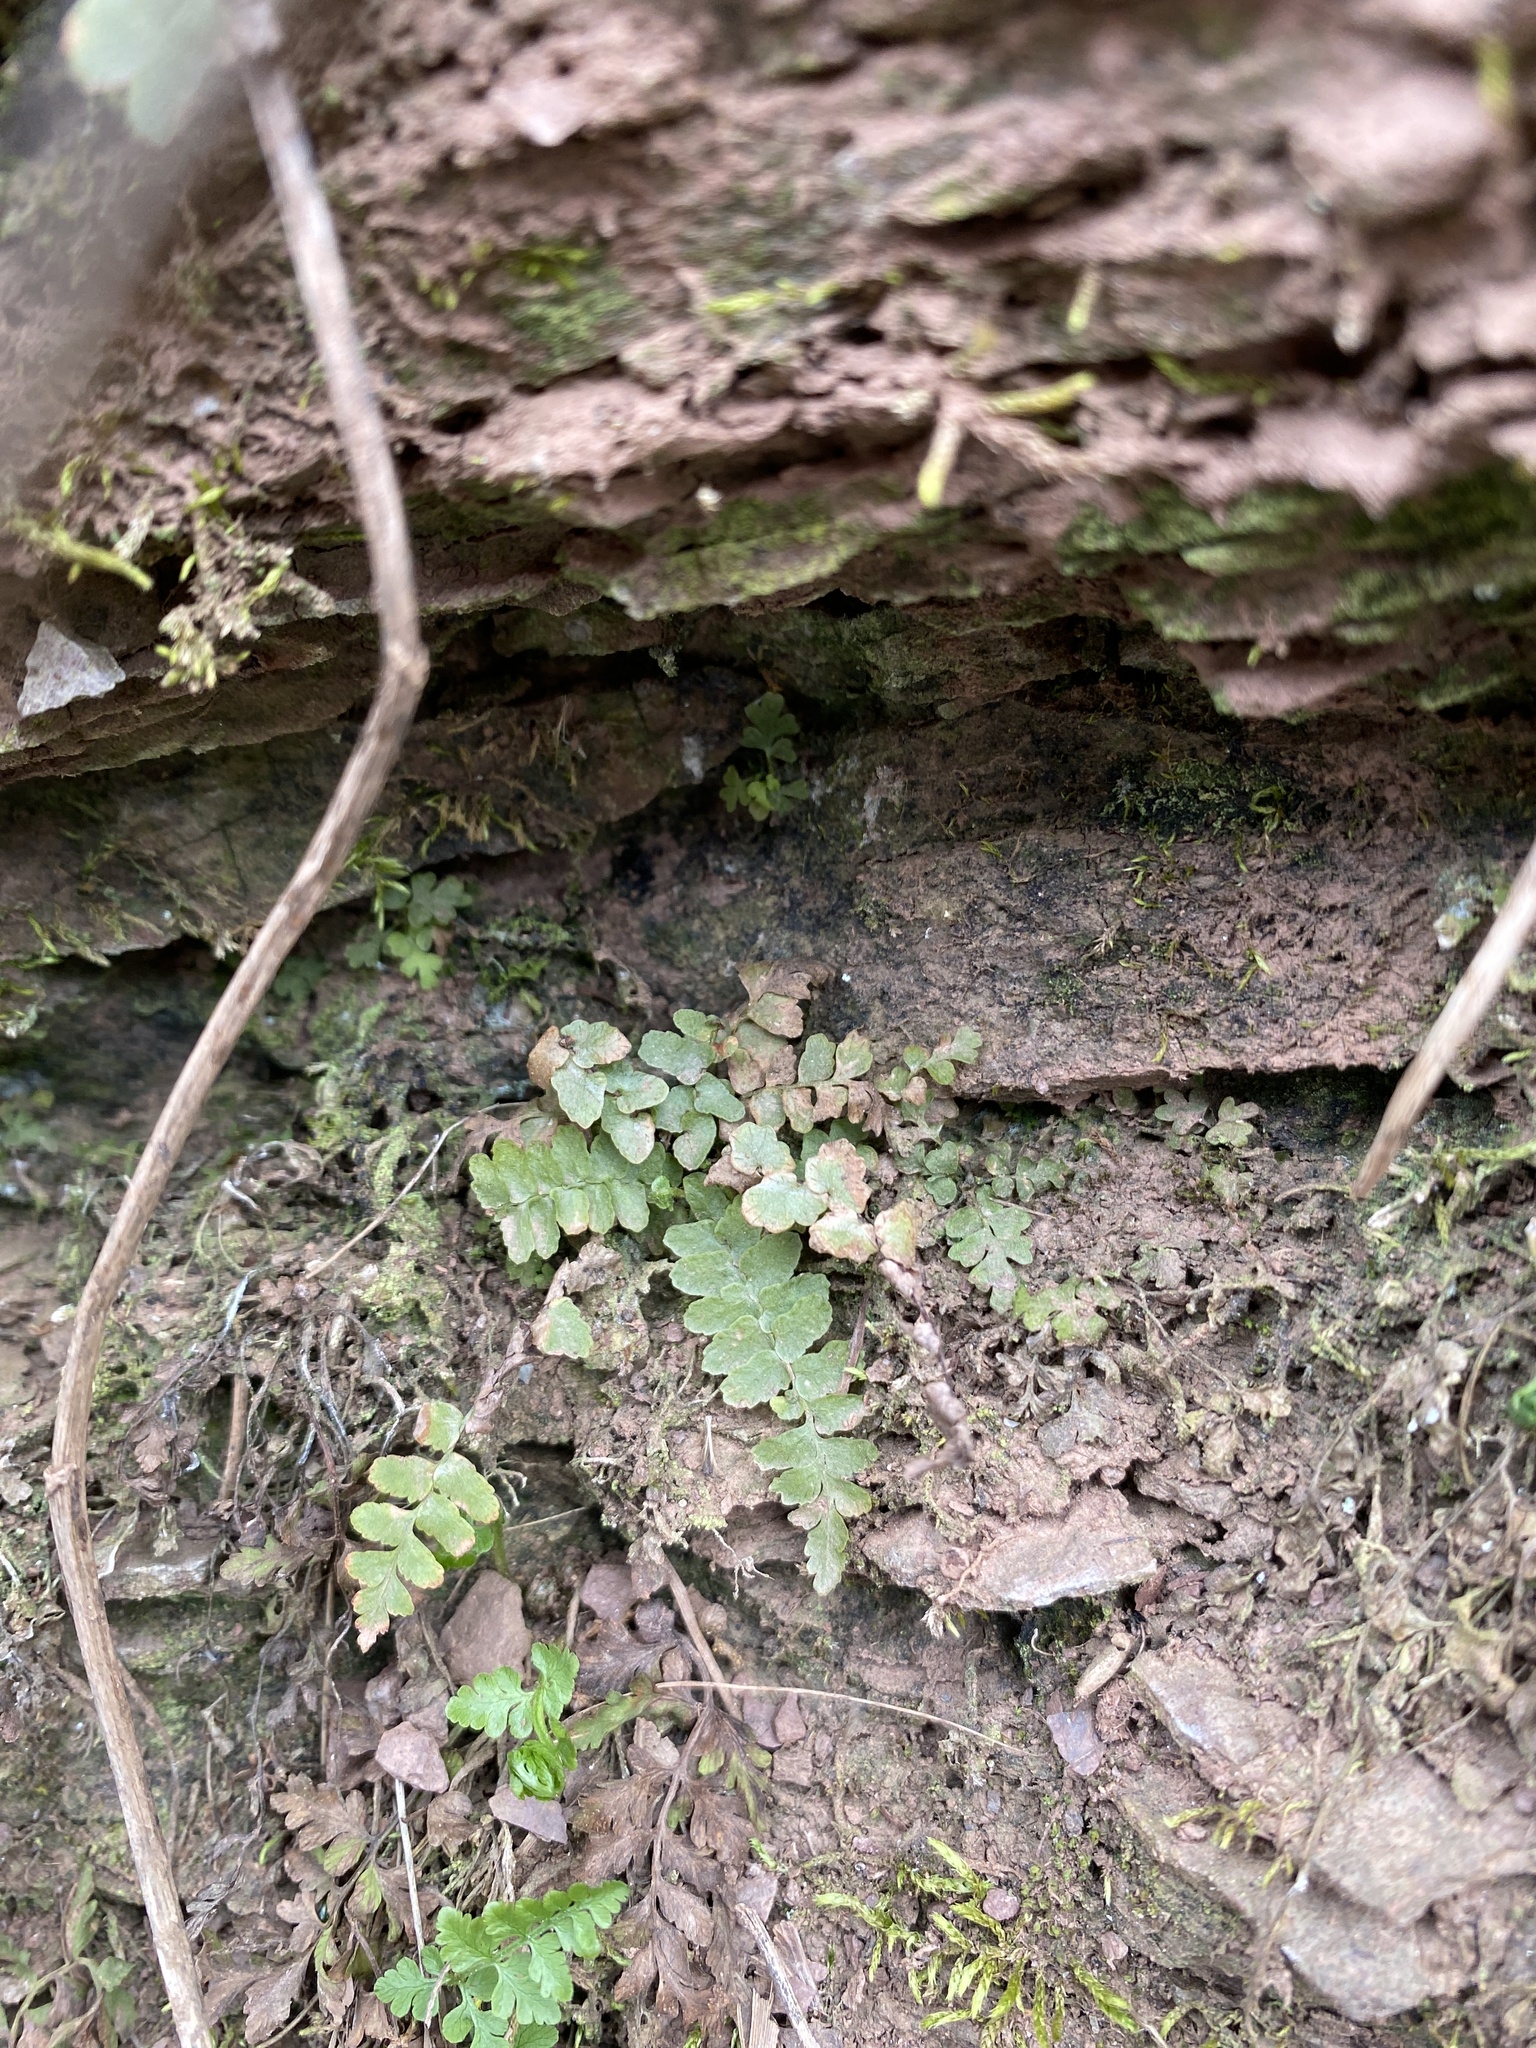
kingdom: Plantae
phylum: Tracheophyta
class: Polypodiopsida
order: Polypodiales
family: Aspleniaceae
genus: Asplenium
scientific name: Asplenium platyneuron
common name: Ebony spleenwort
